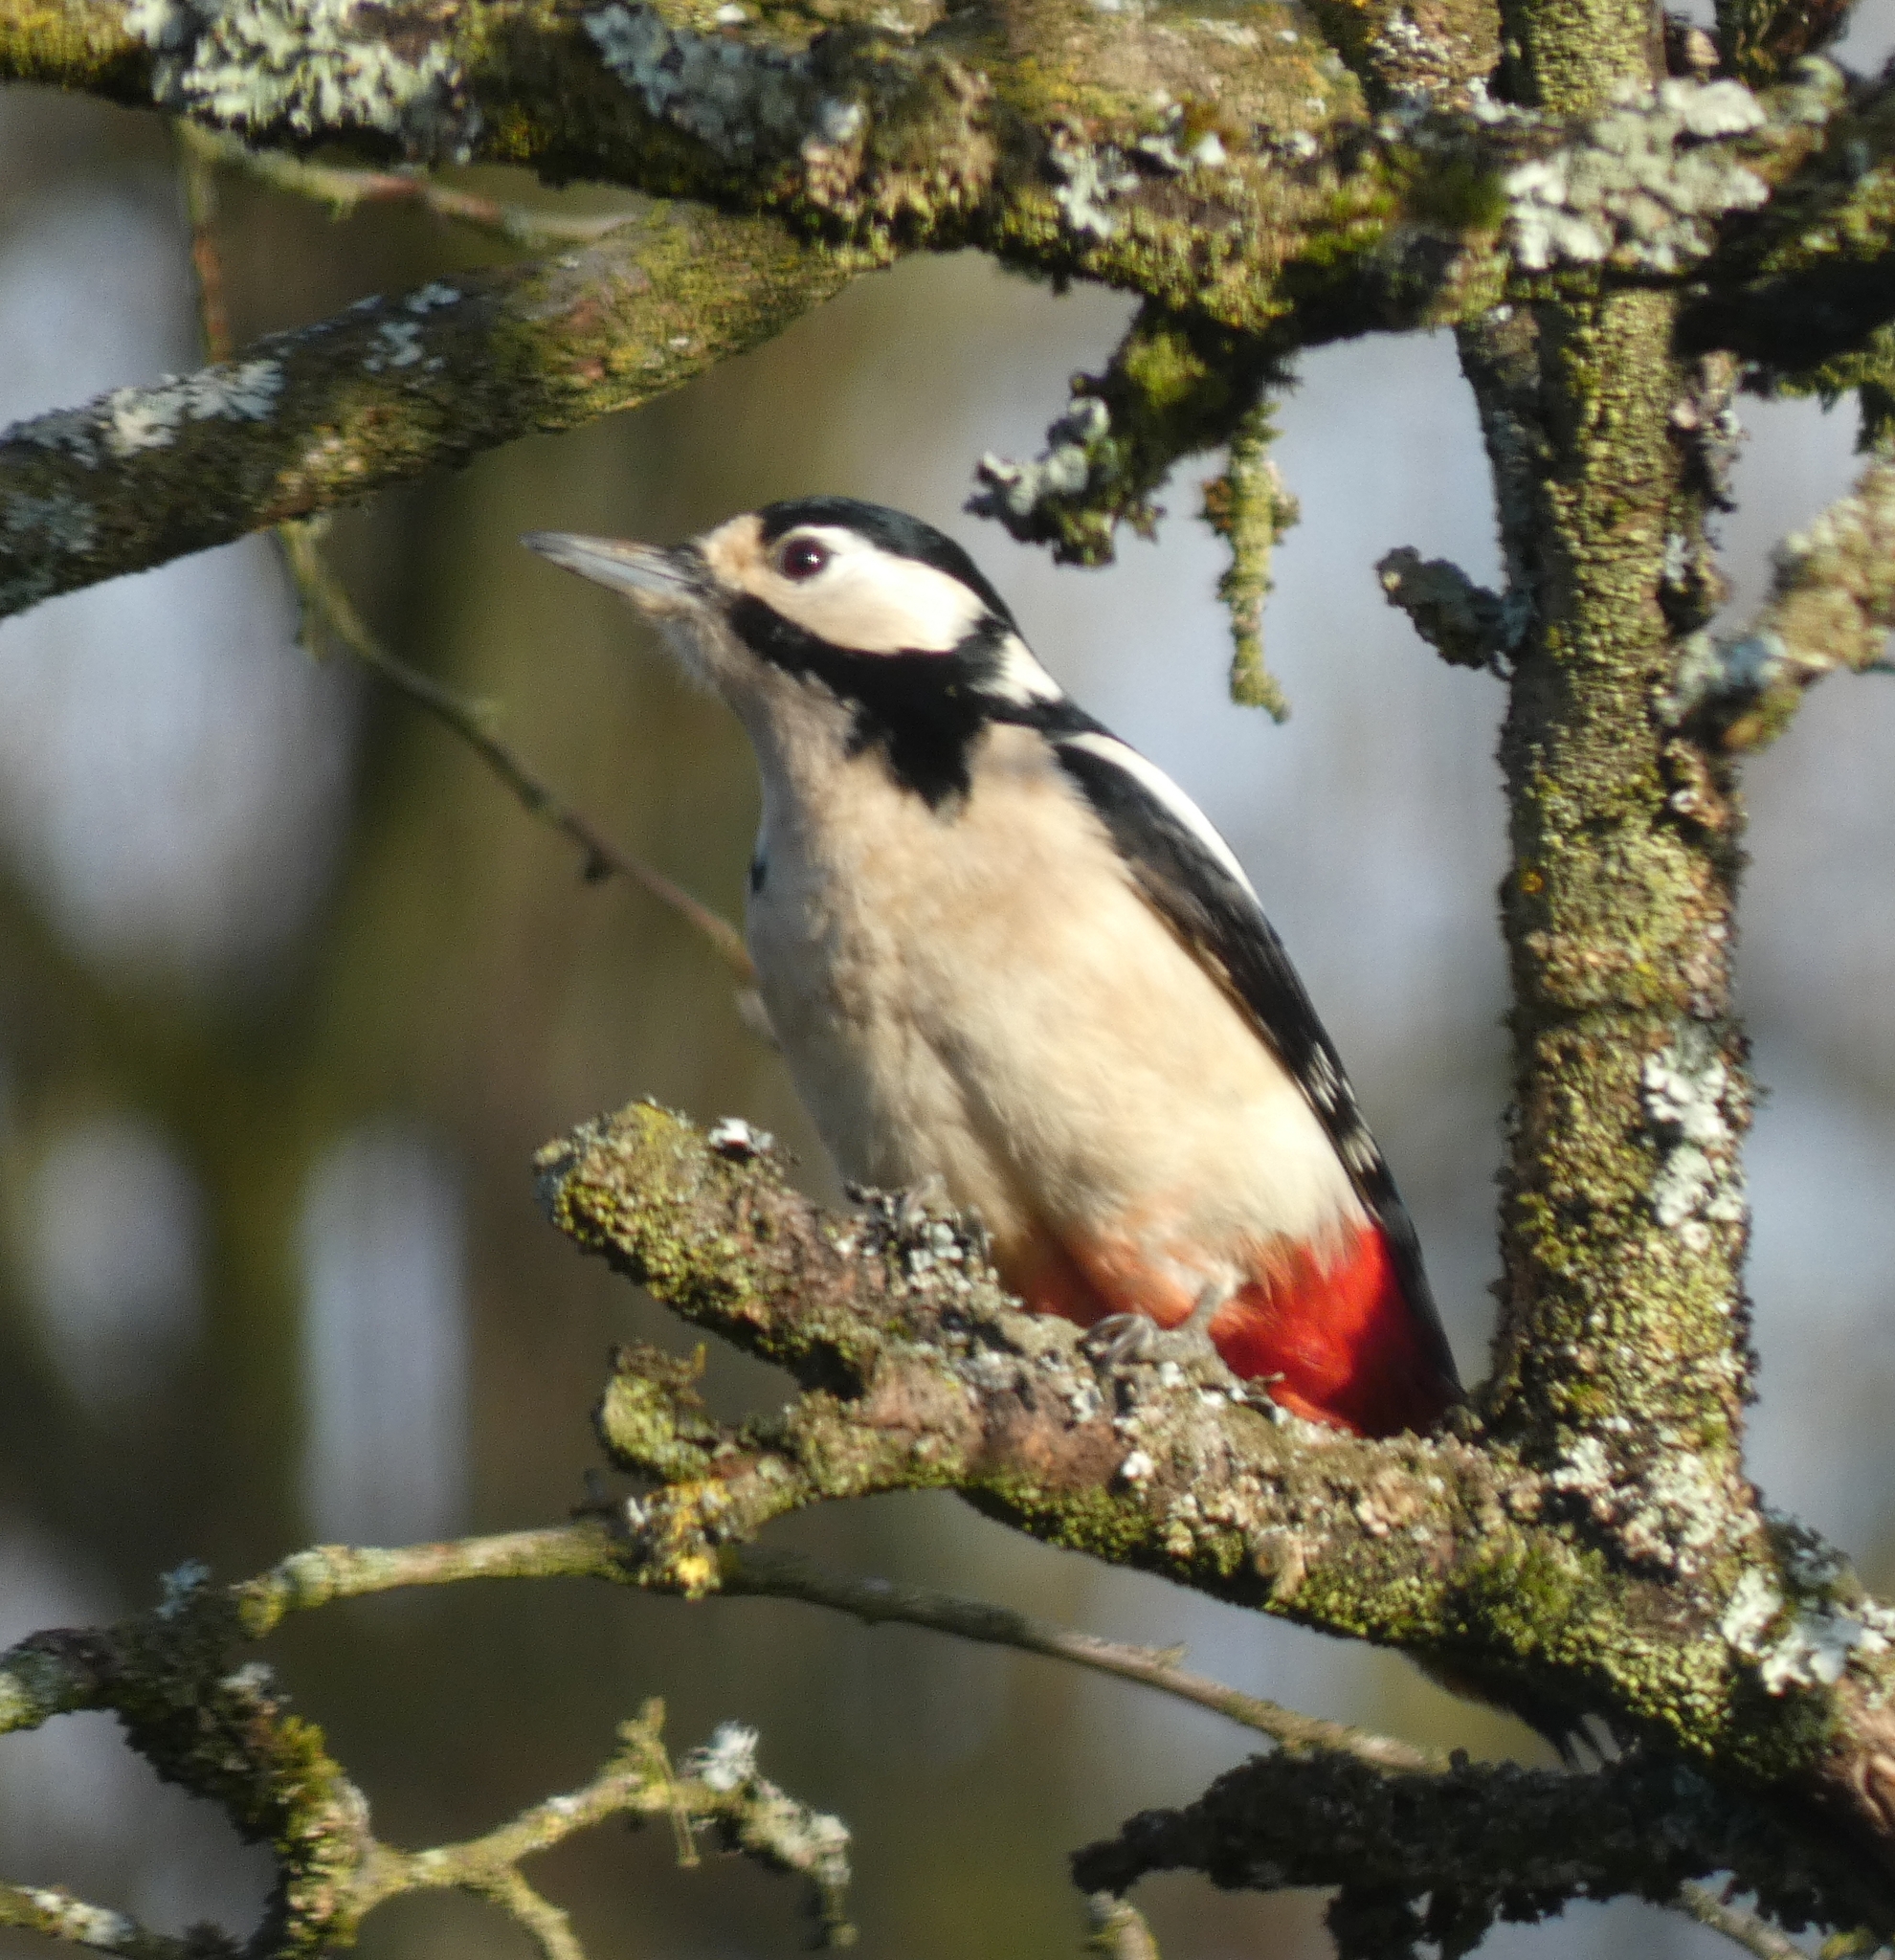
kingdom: Animalia
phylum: Chordata
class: Aves
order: Piciformes
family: Picidae
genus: Dendrocopos
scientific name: Dendrocopos major
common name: Great spotted woodpecker
